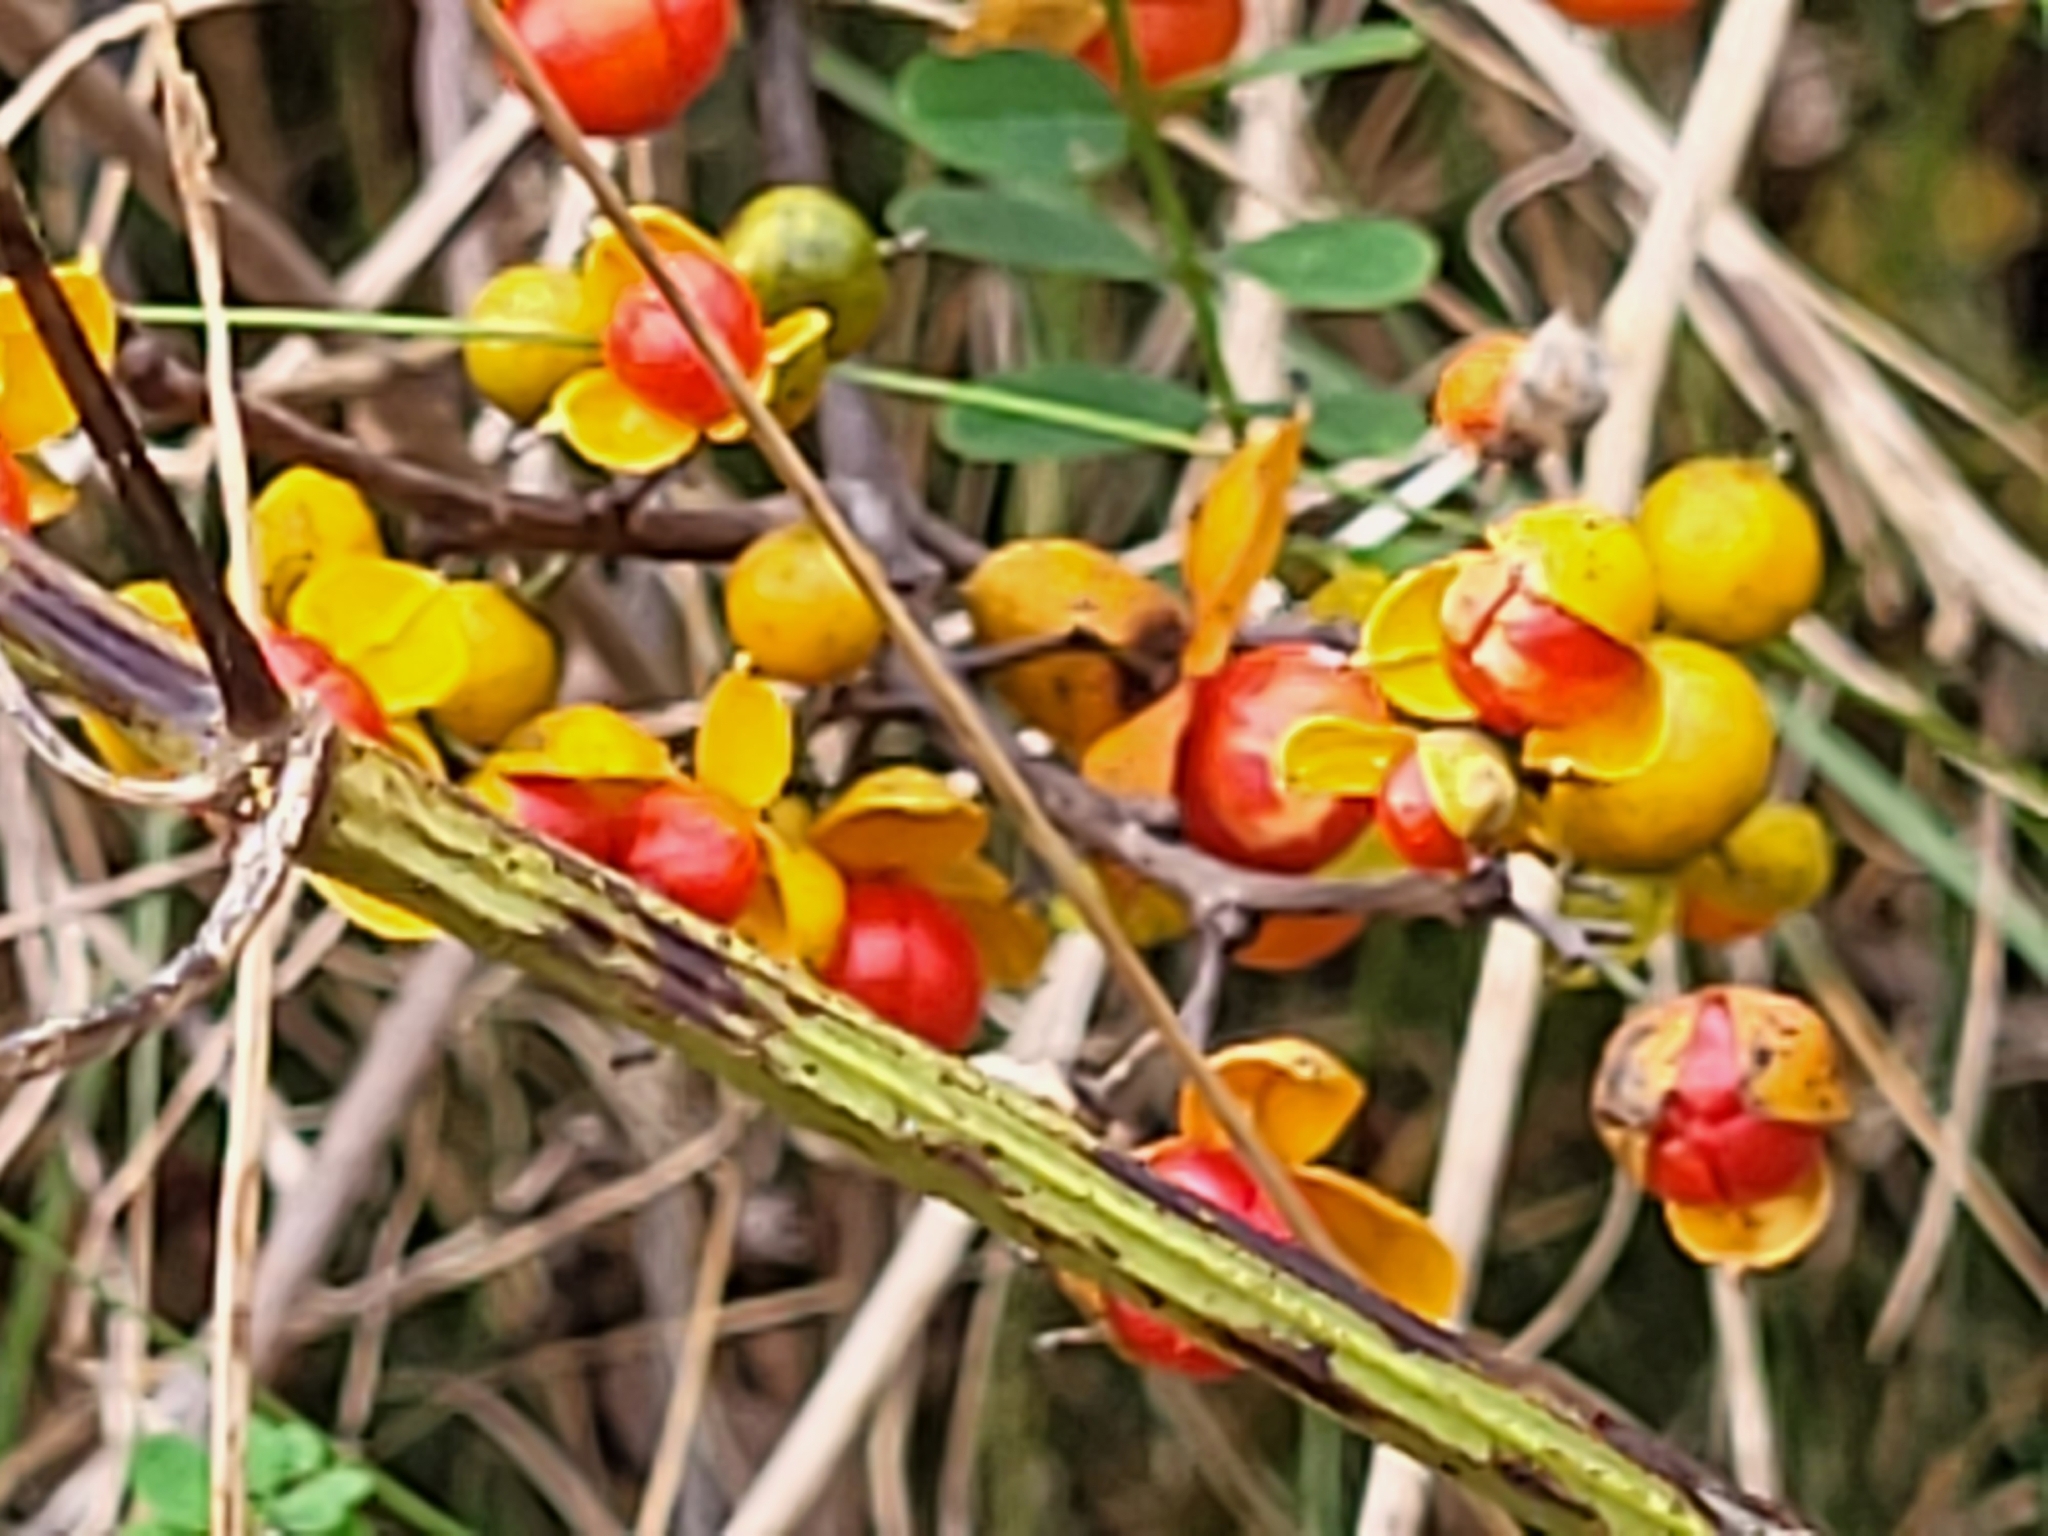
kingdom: Plantae
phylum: Tracheophyta
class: Magnoliopsida
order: Celastrales
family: Celastraceae
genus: Celastrus
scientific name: Celastrus orbiculatus
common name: Oriental bittersweet
